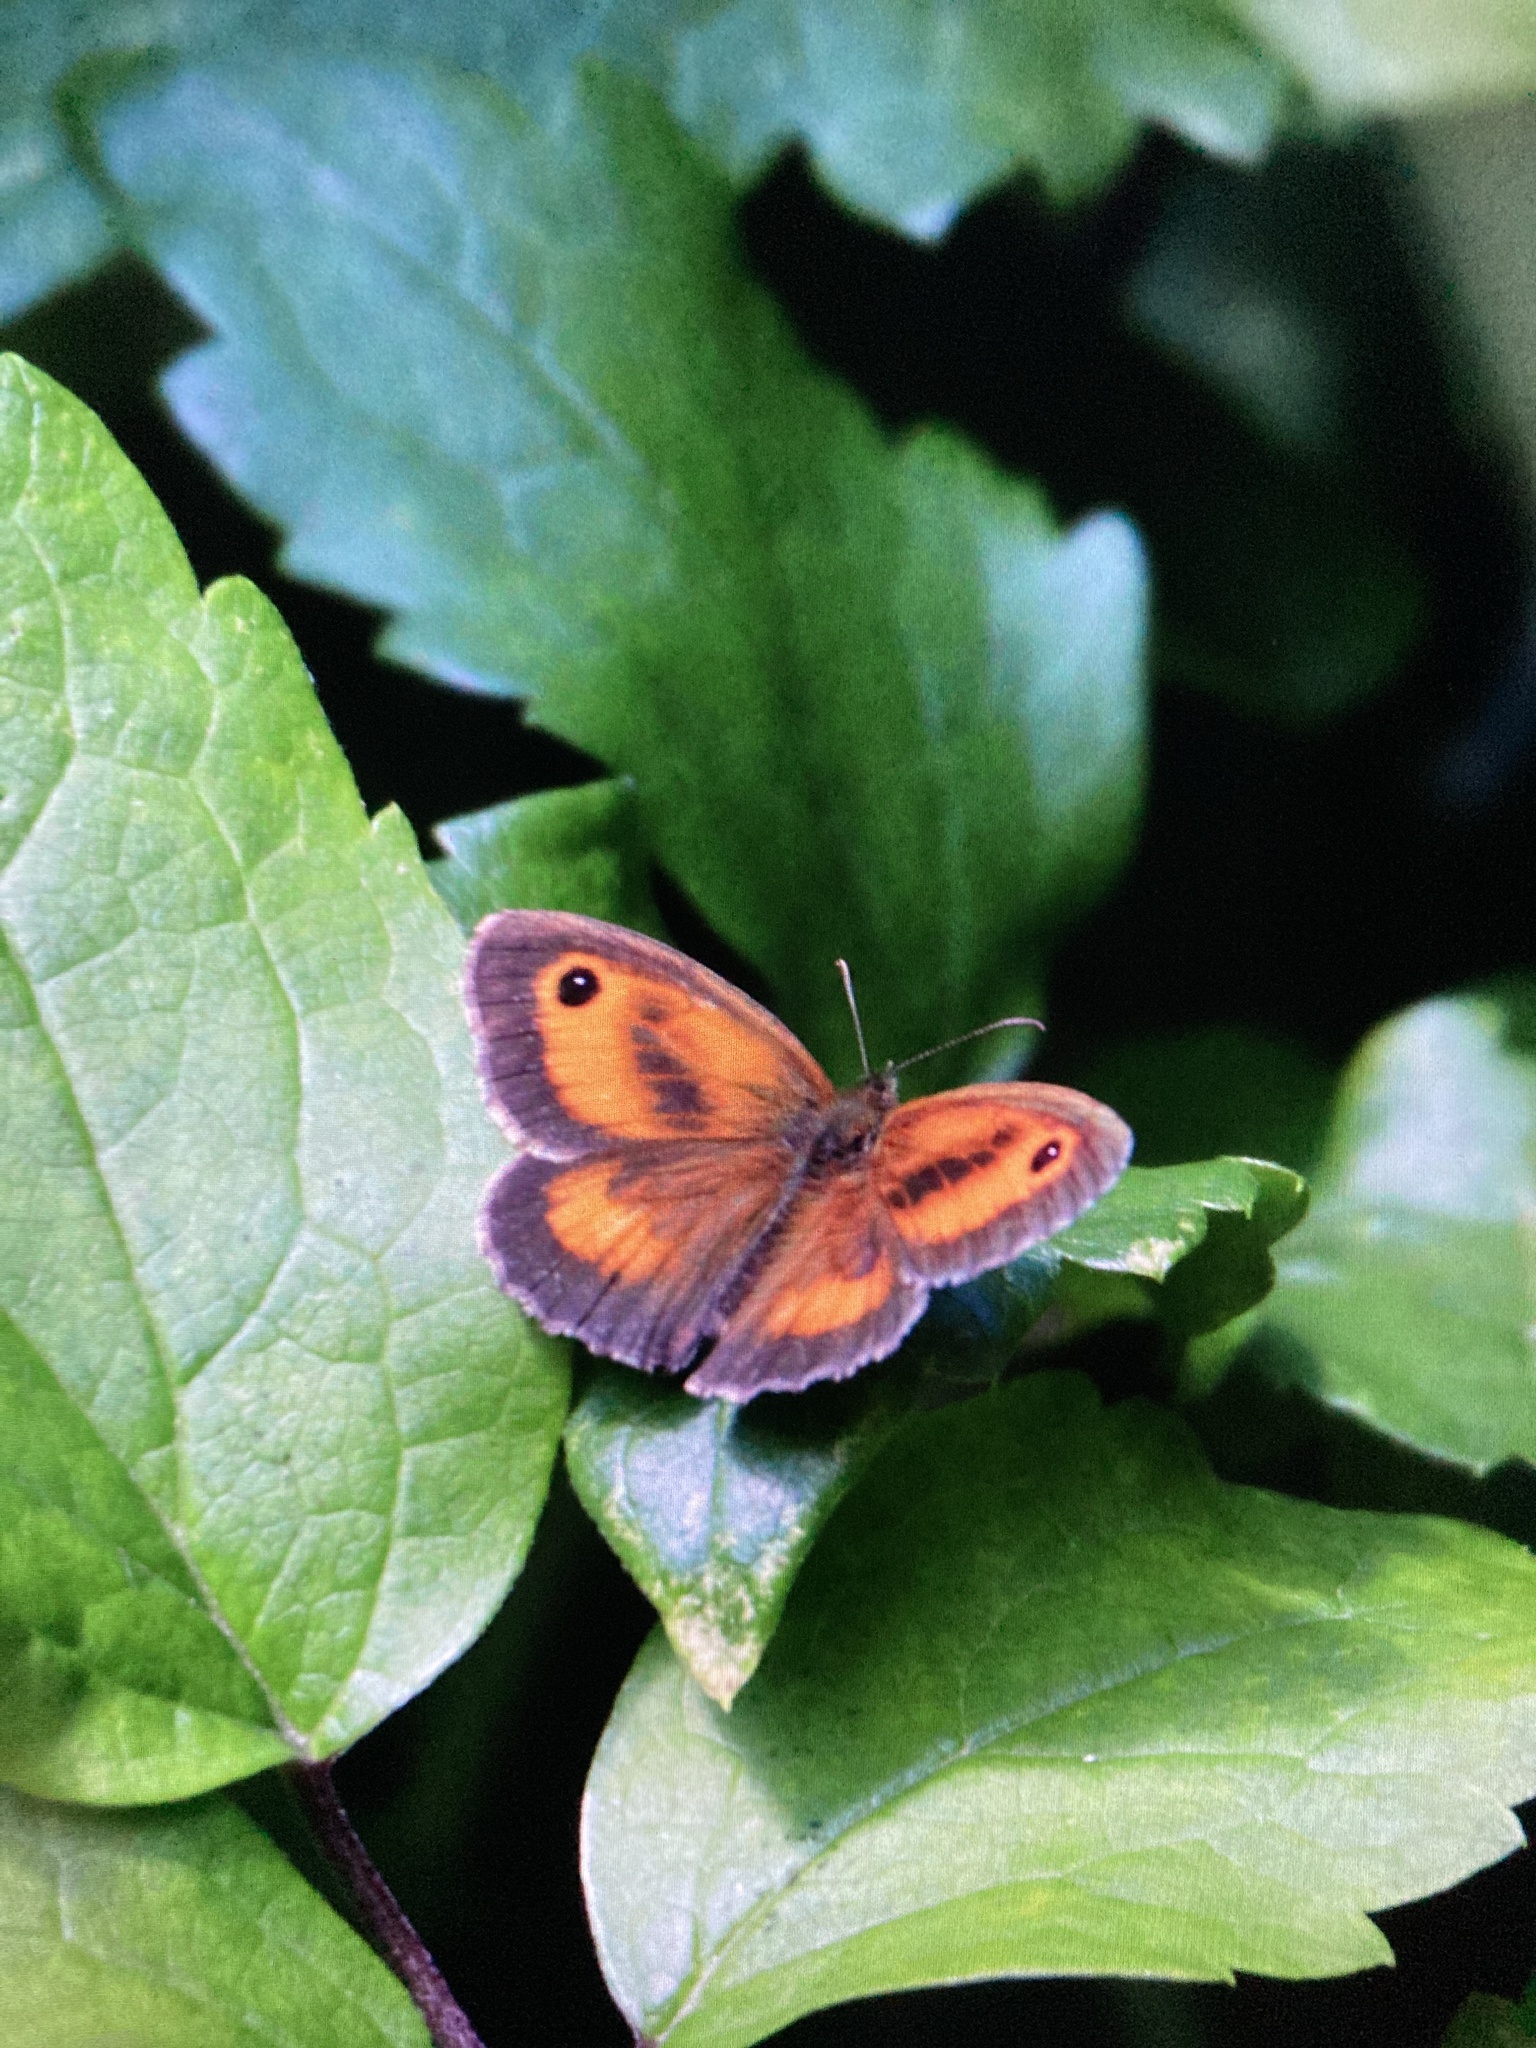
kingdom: Animalia
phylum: Arthropoda
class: Insecta
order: Lepidoptera
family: Nymphalidae
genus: Pyronia
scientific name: Pyronia tithonus
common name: Gatekeeper
